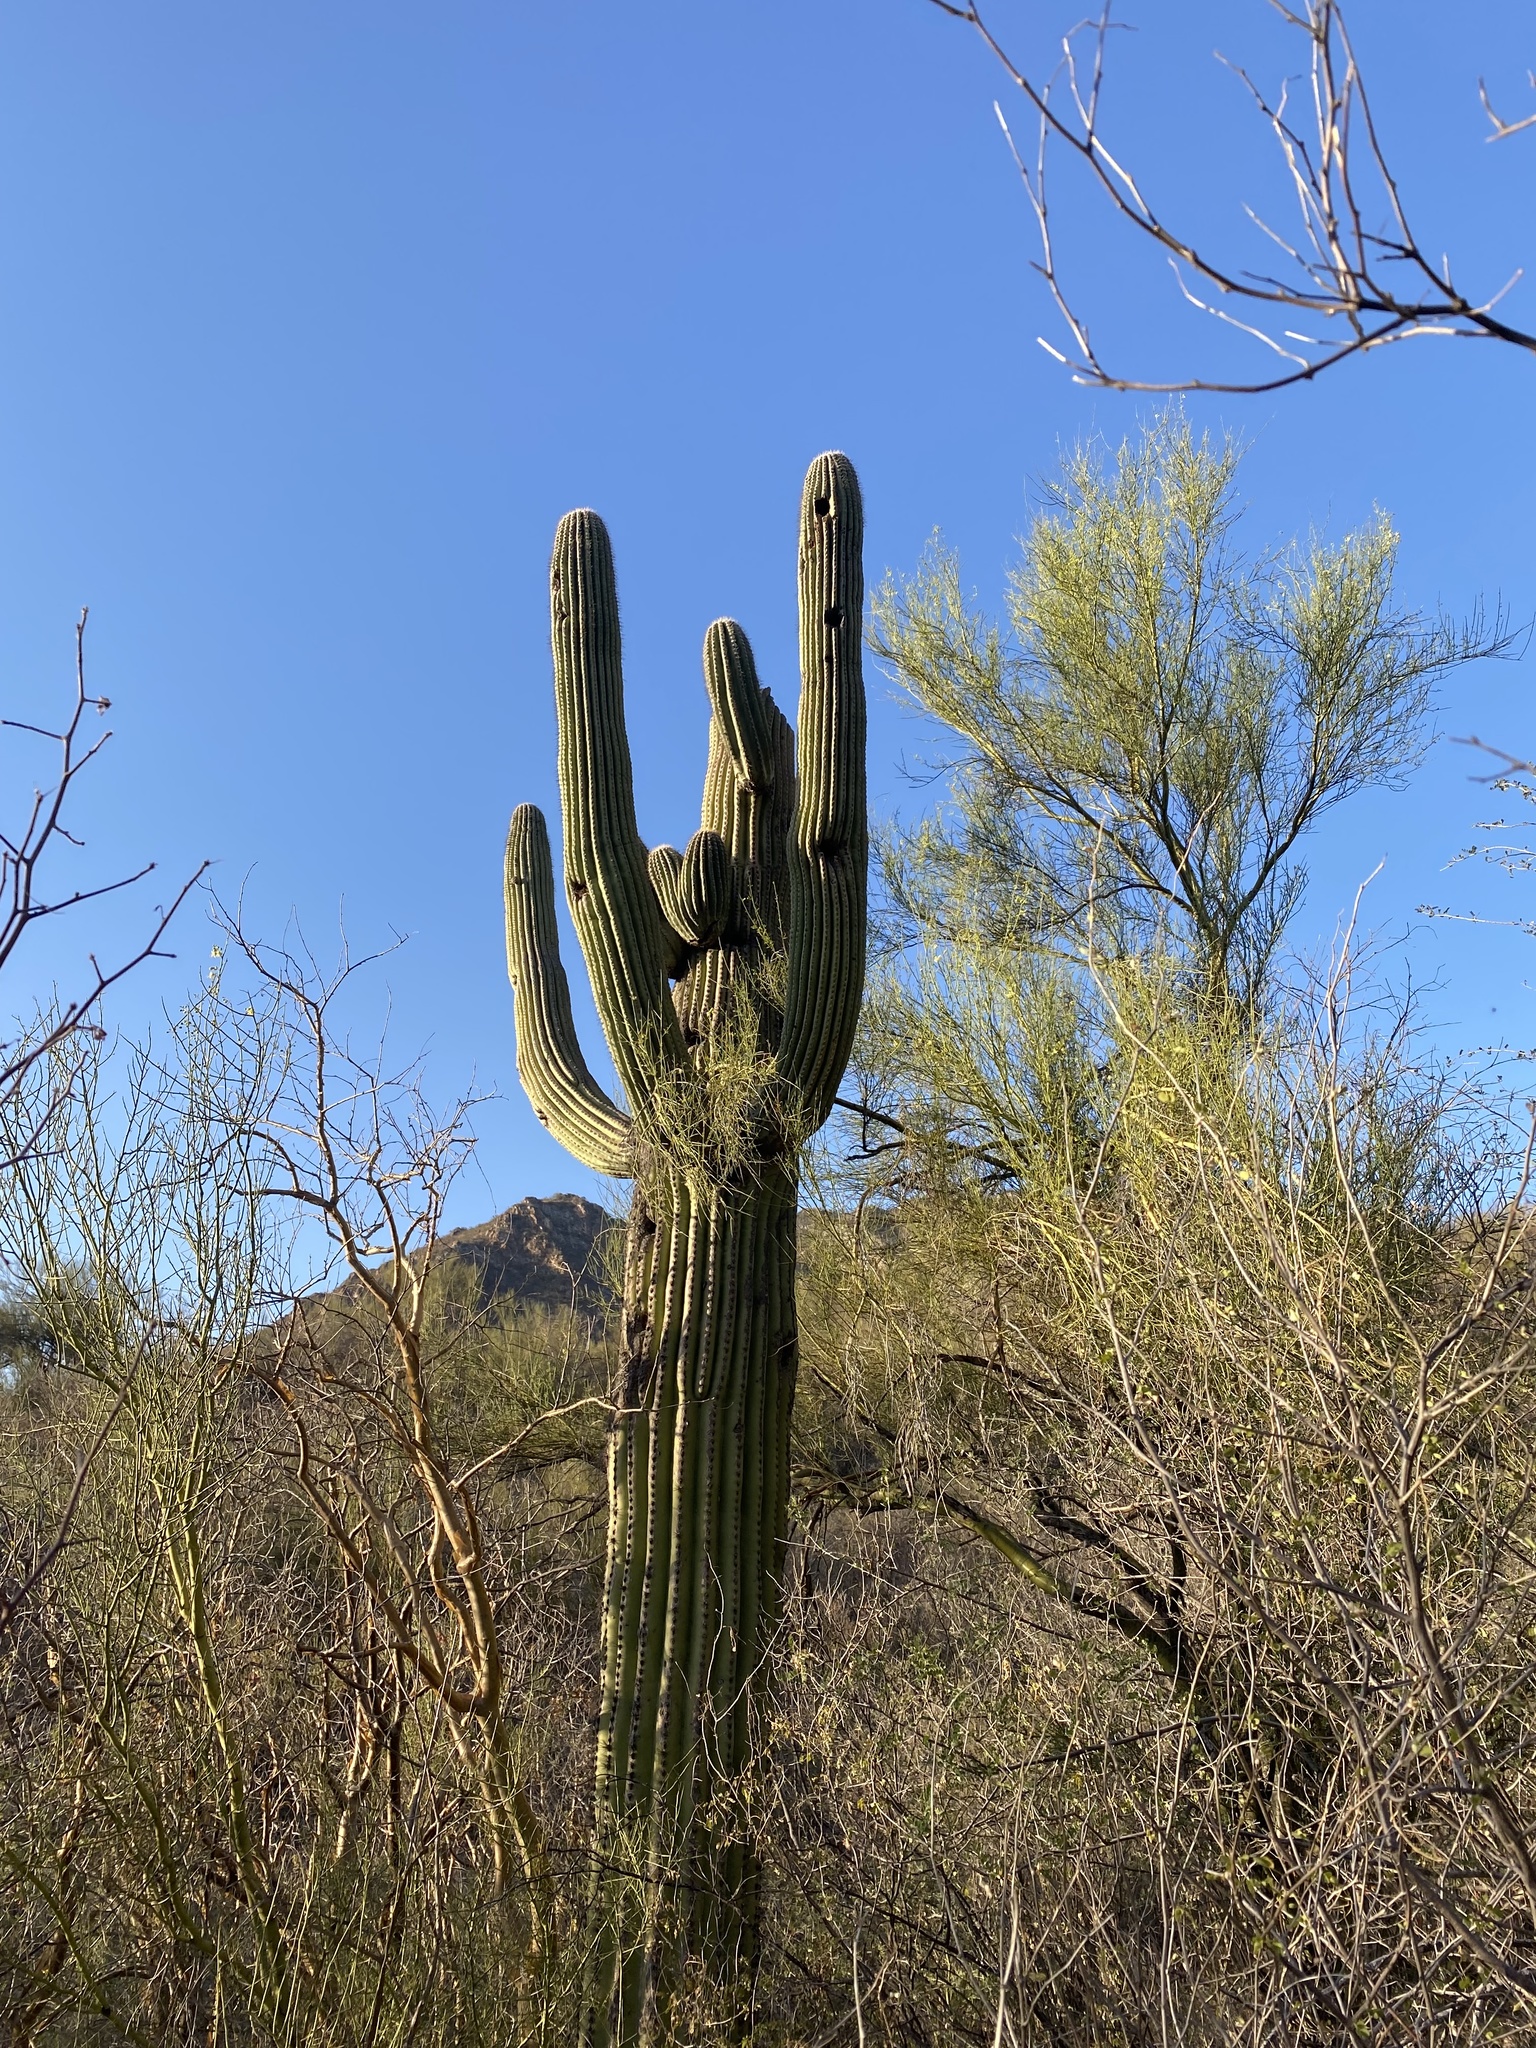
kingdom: Plantae
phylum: Tracheophyta
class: Magnoliopsida
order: Caryophyllales
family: Cactaceae
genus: Carnegiea
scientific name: Carnegiea gigantea
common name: Saguaro
